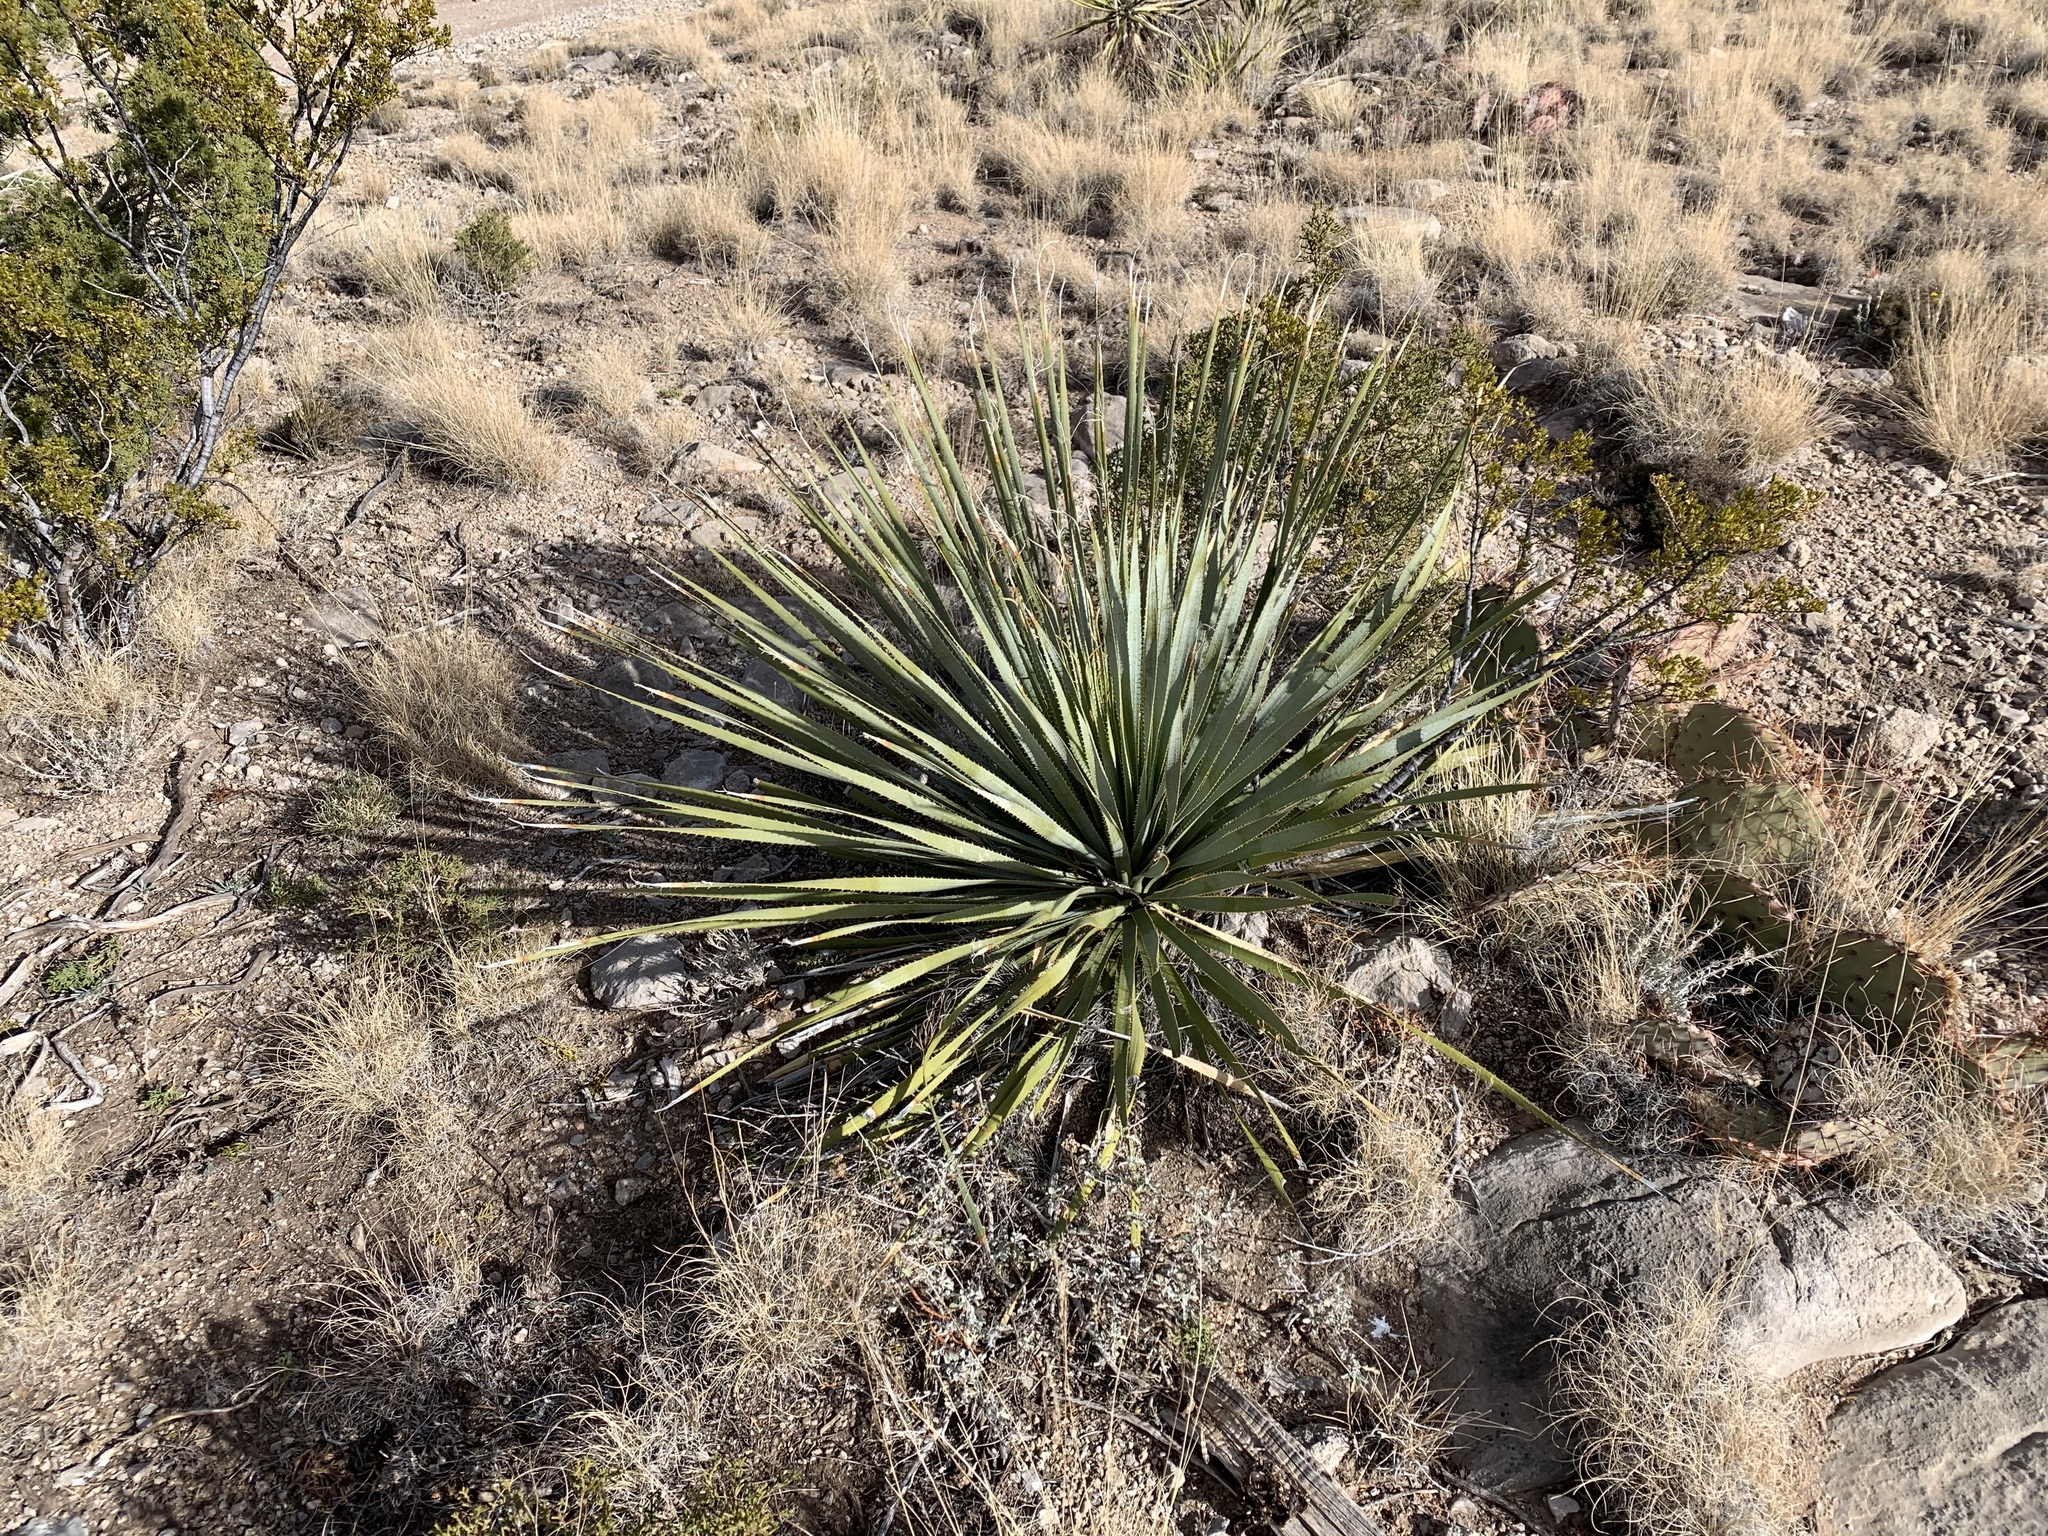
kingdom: Plantae
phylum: Tracheophyta
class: Liliopsida
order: Asparagales
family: Asparagaceae
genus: Dasylirion
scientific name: Dasylirion wheeleri
